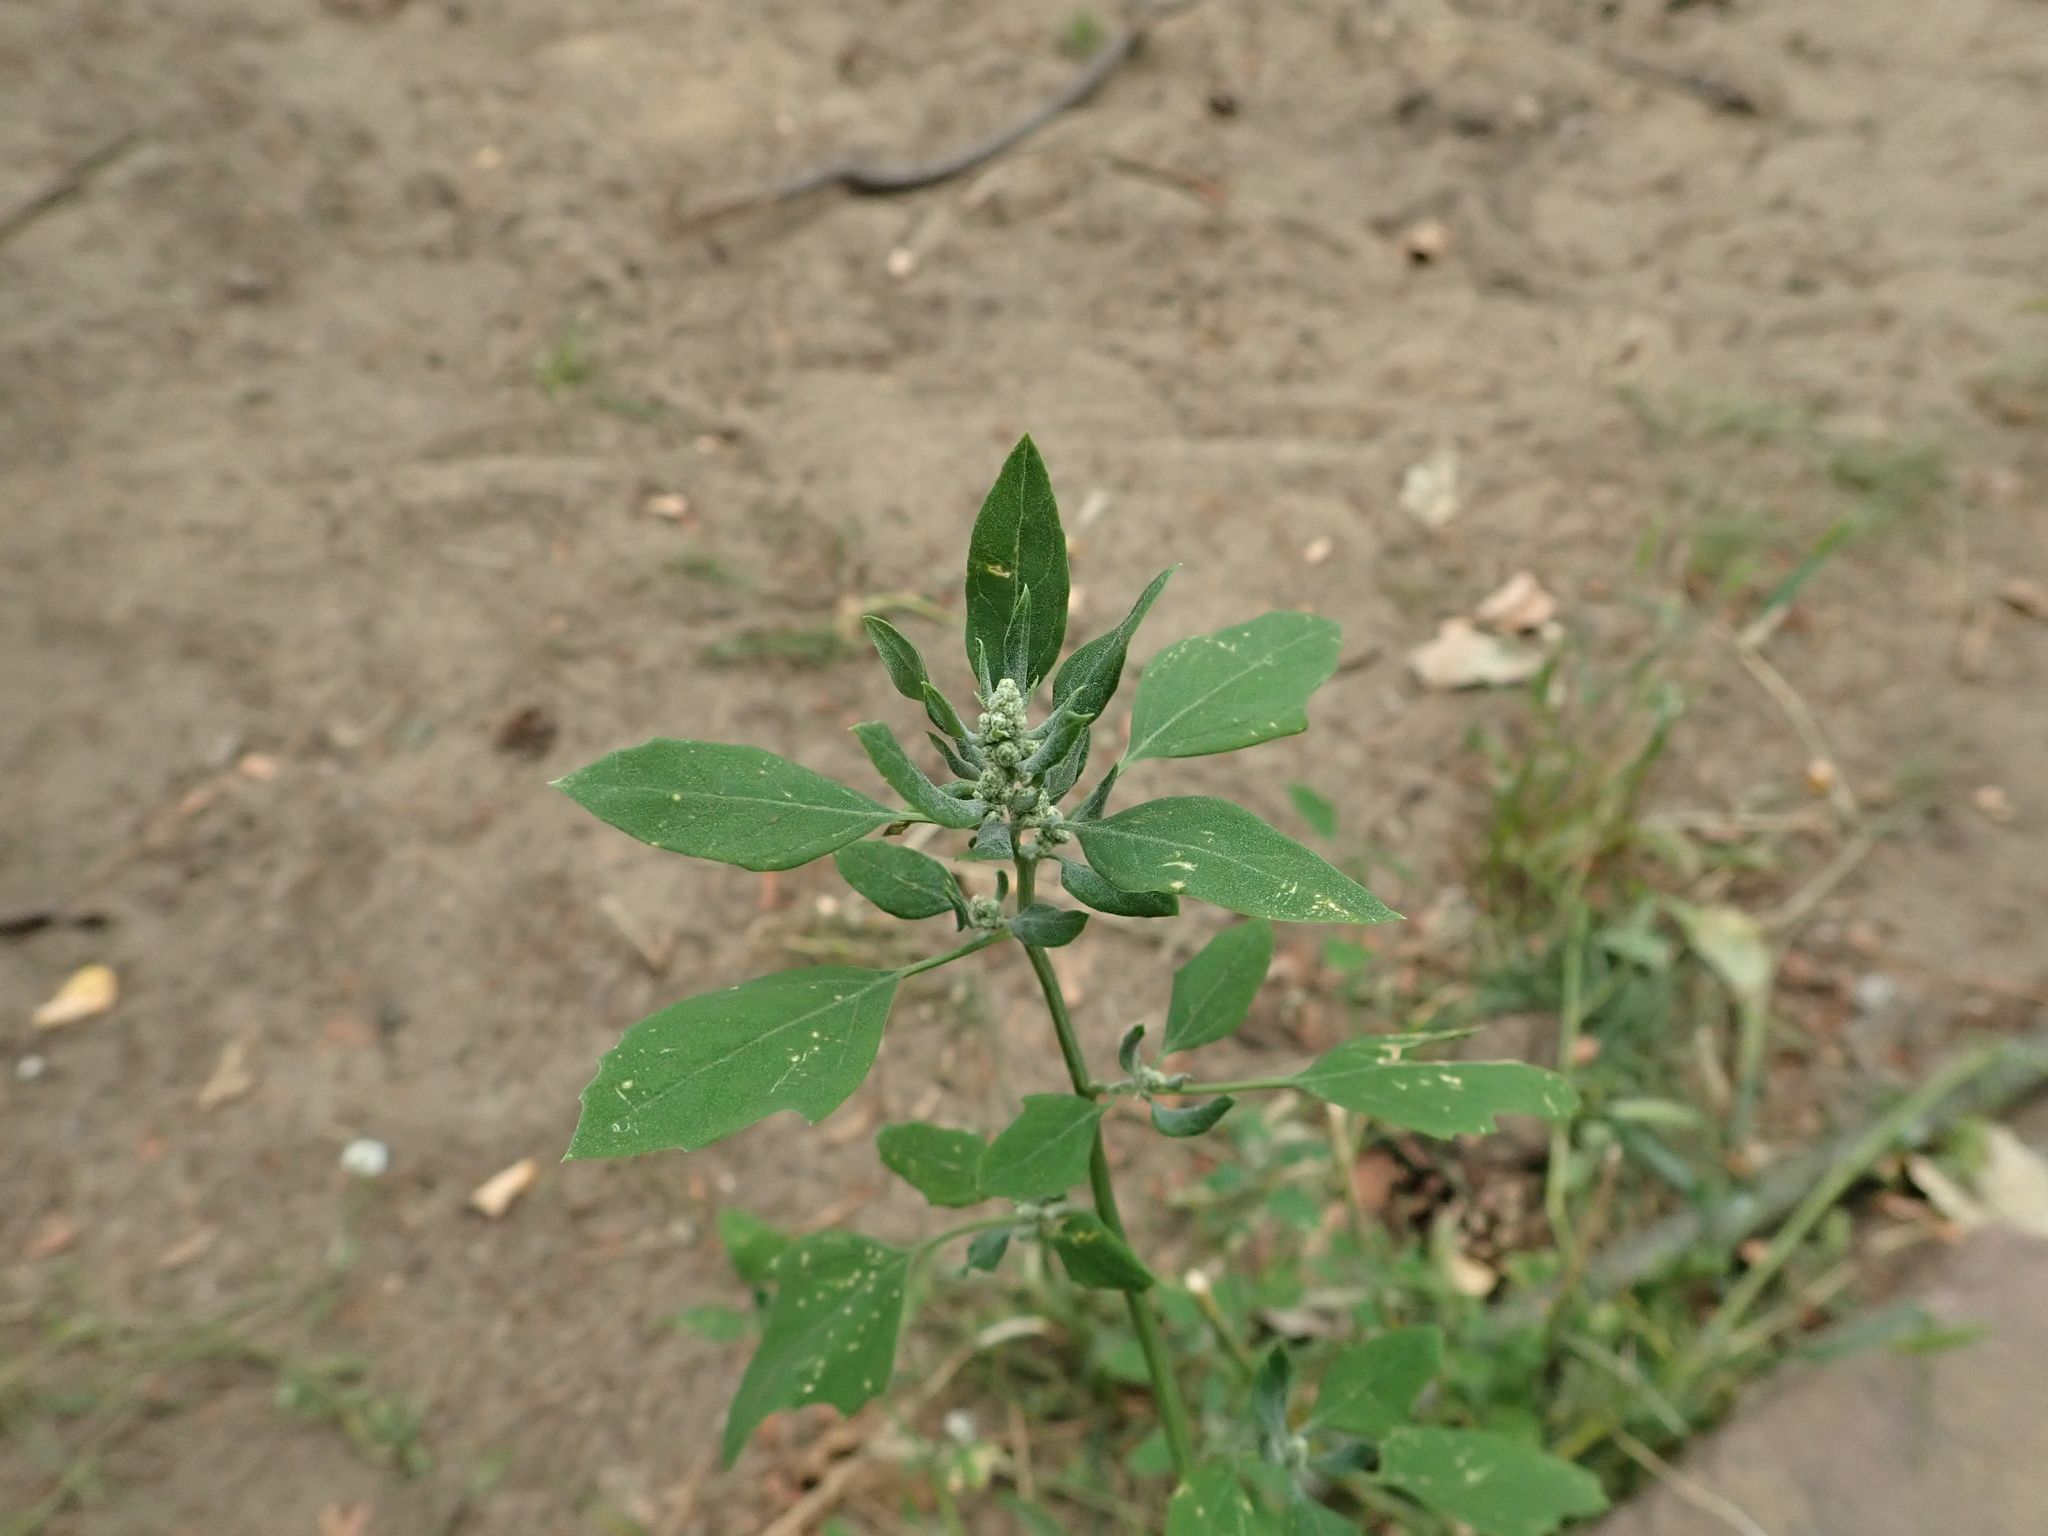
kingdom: Plantae
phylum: Tracheophyta
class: Magnoliopsida
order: Caryophyllales
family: Amaranthaceae
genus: Chenopodium
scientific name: Chenopodium album
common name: Fat-hen
